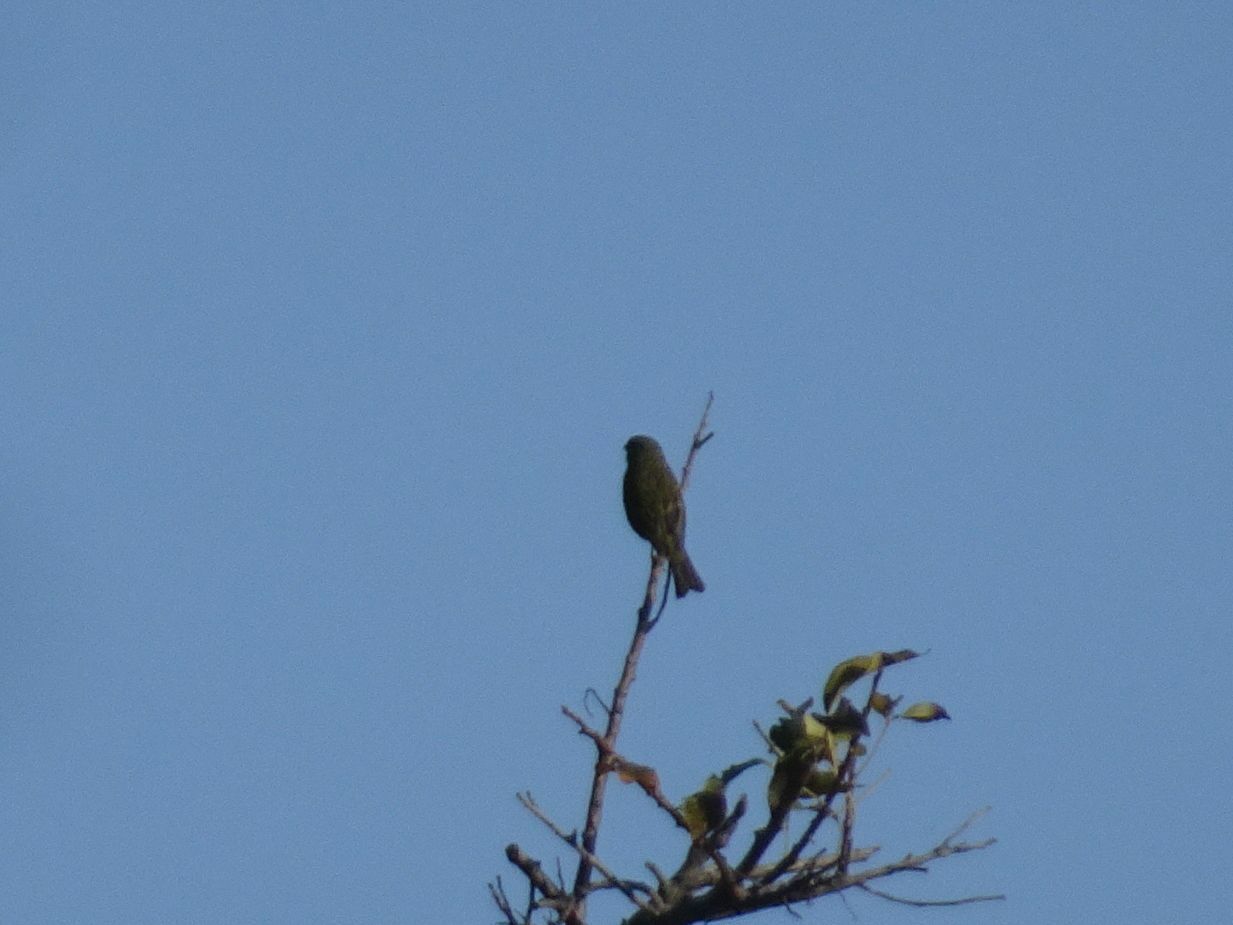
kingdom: Animalia
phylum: Chordata
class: Aves
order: Passeriformes
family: Fringillidae
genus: Crithagra
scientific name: Crithagra scotops
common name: Forest canary
